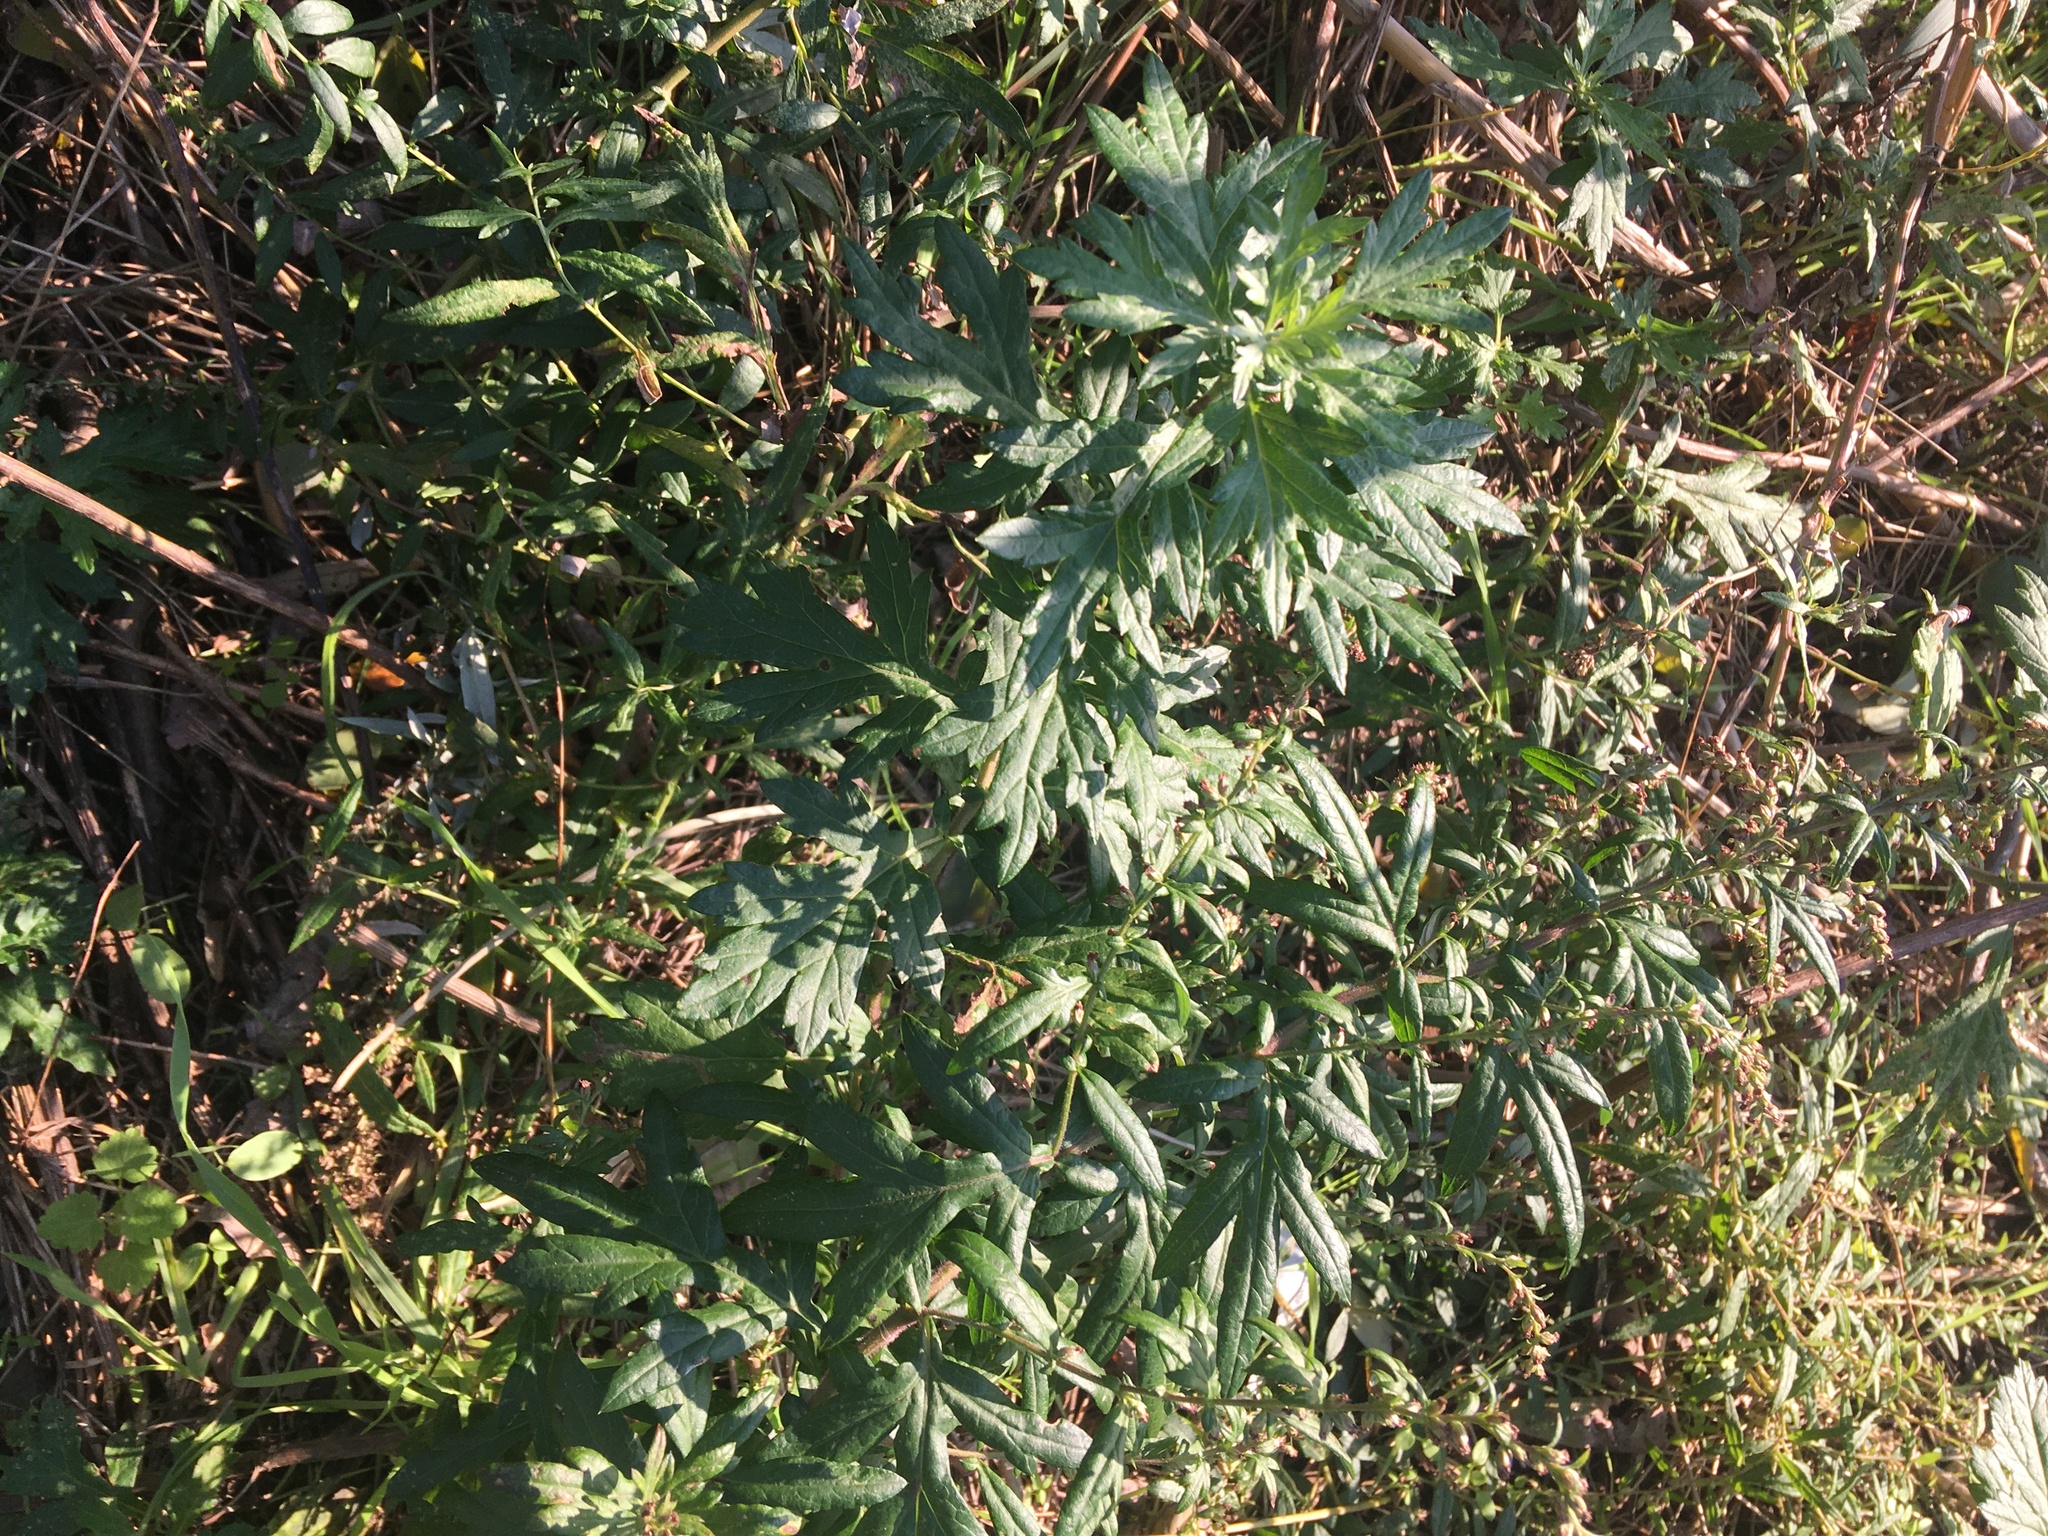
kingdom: Plantae
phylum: Tracheophyta
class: Magnoliopsida
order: Asterales
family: Asteraceae
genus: Artemisia
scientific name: Artemisia vulgaris
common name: Mugwort
